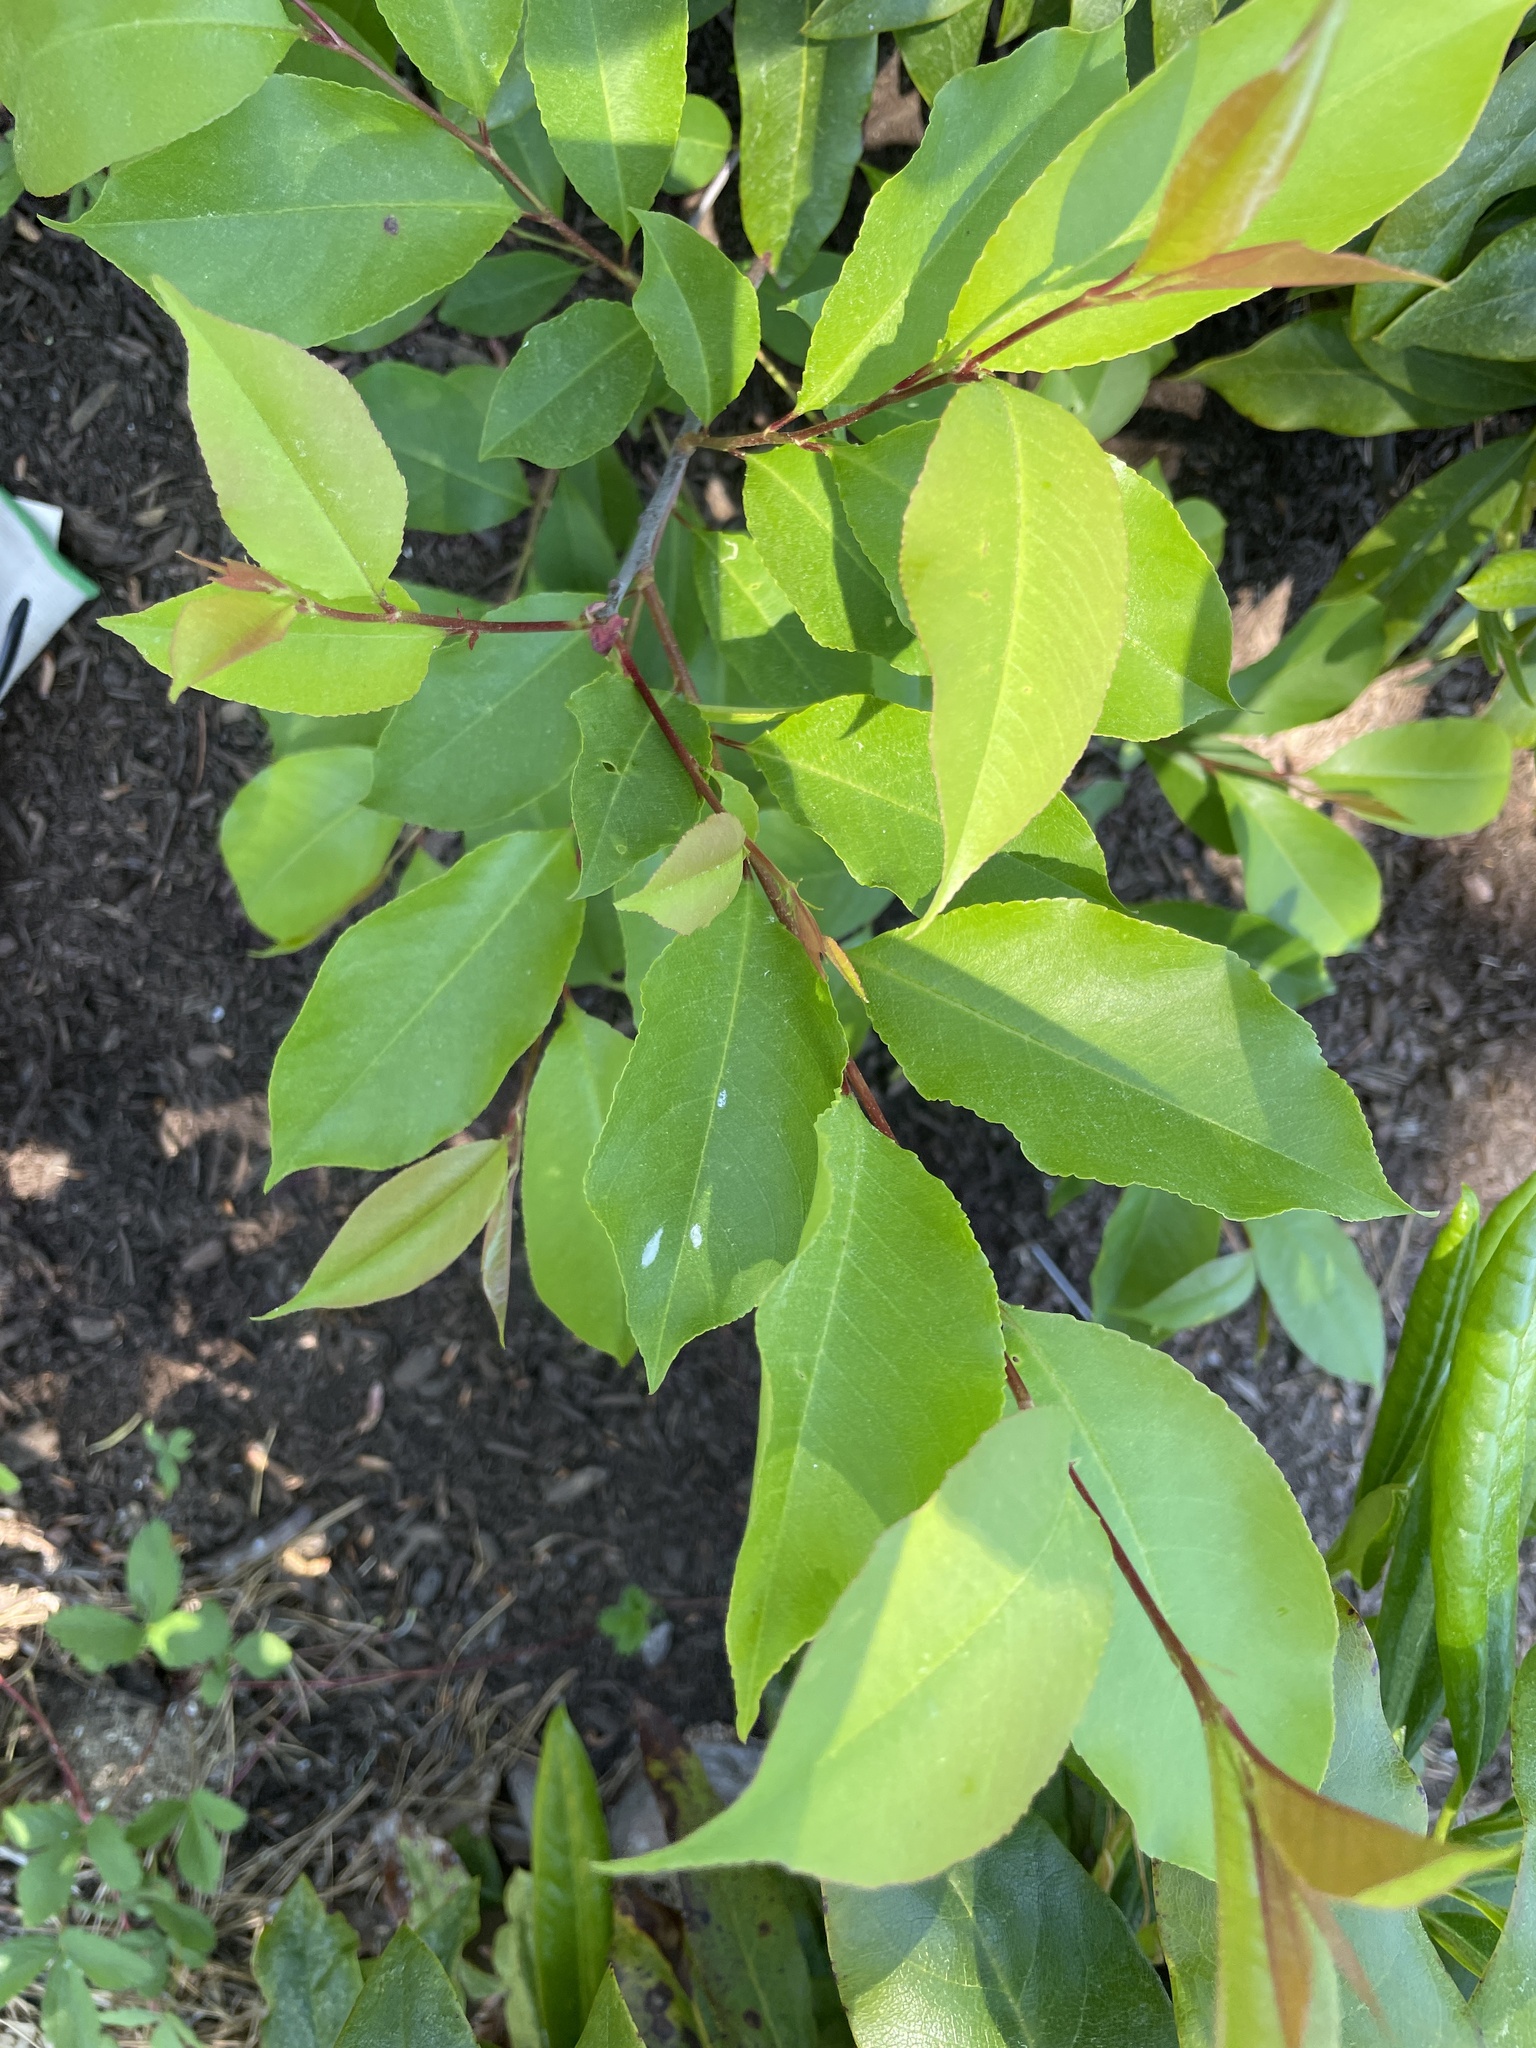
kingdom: Plantae
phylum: Tracheophyta
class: Magnoliopsida
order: Rosales
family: Rosaceae
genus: Prunus
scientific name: Prunus serotina
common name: Black cherry
